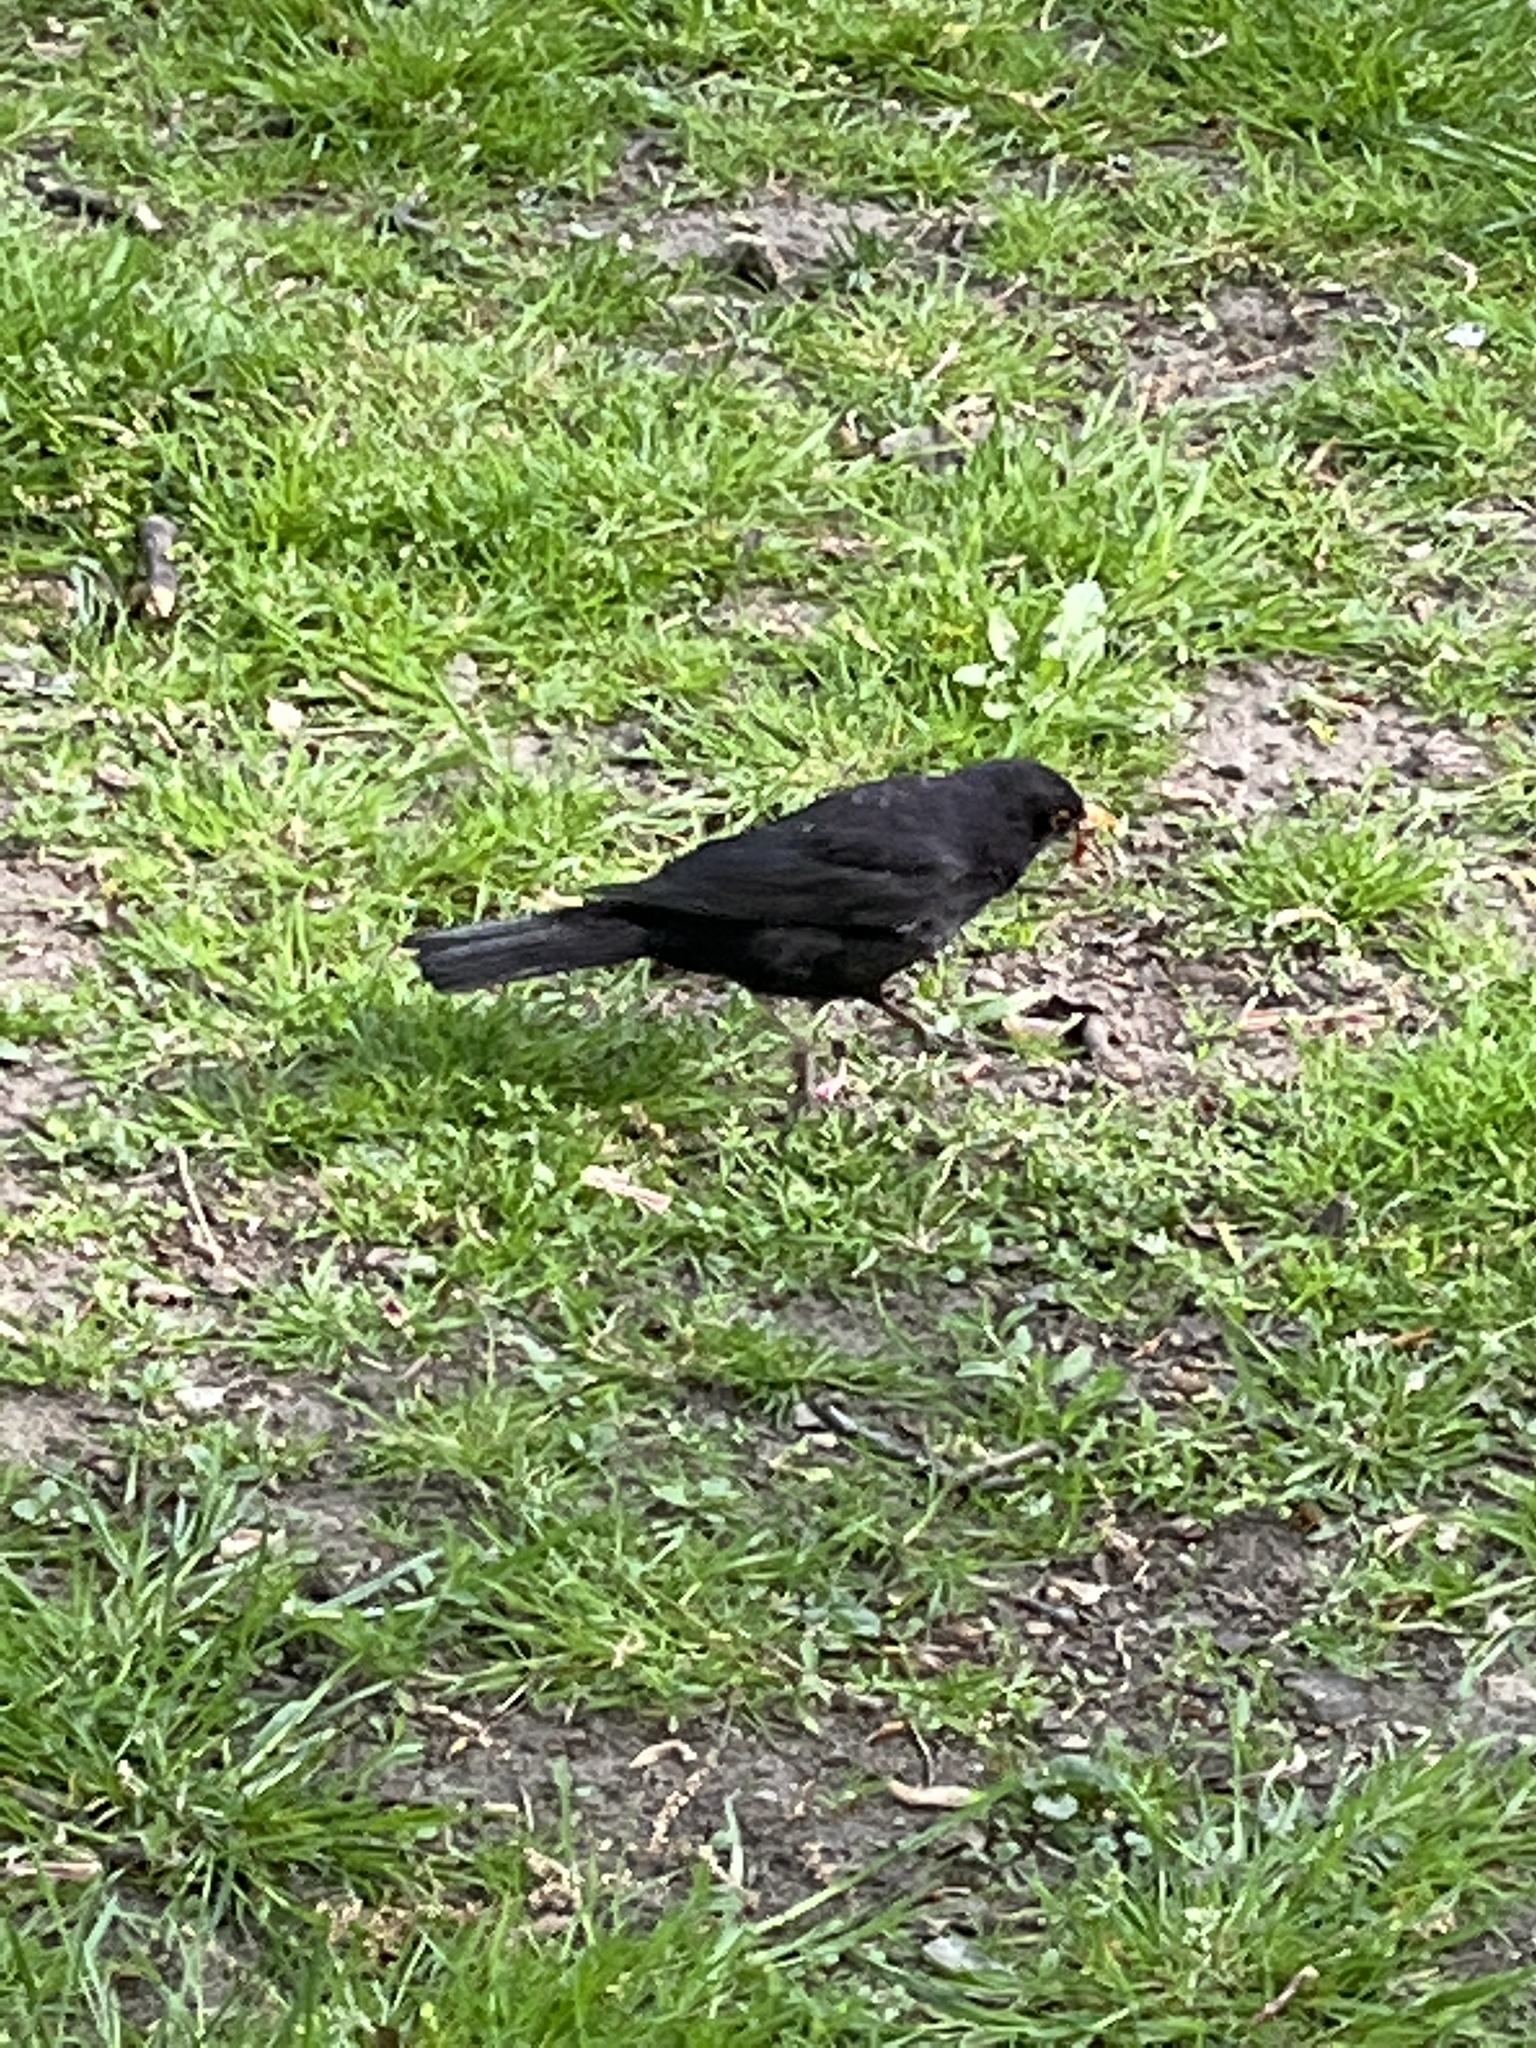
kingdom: Animalia
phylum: Chordata
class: Aves
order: Passeriformes
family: Turdidae
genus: Turdus
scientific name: Turdus merula
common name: Common blackbird
